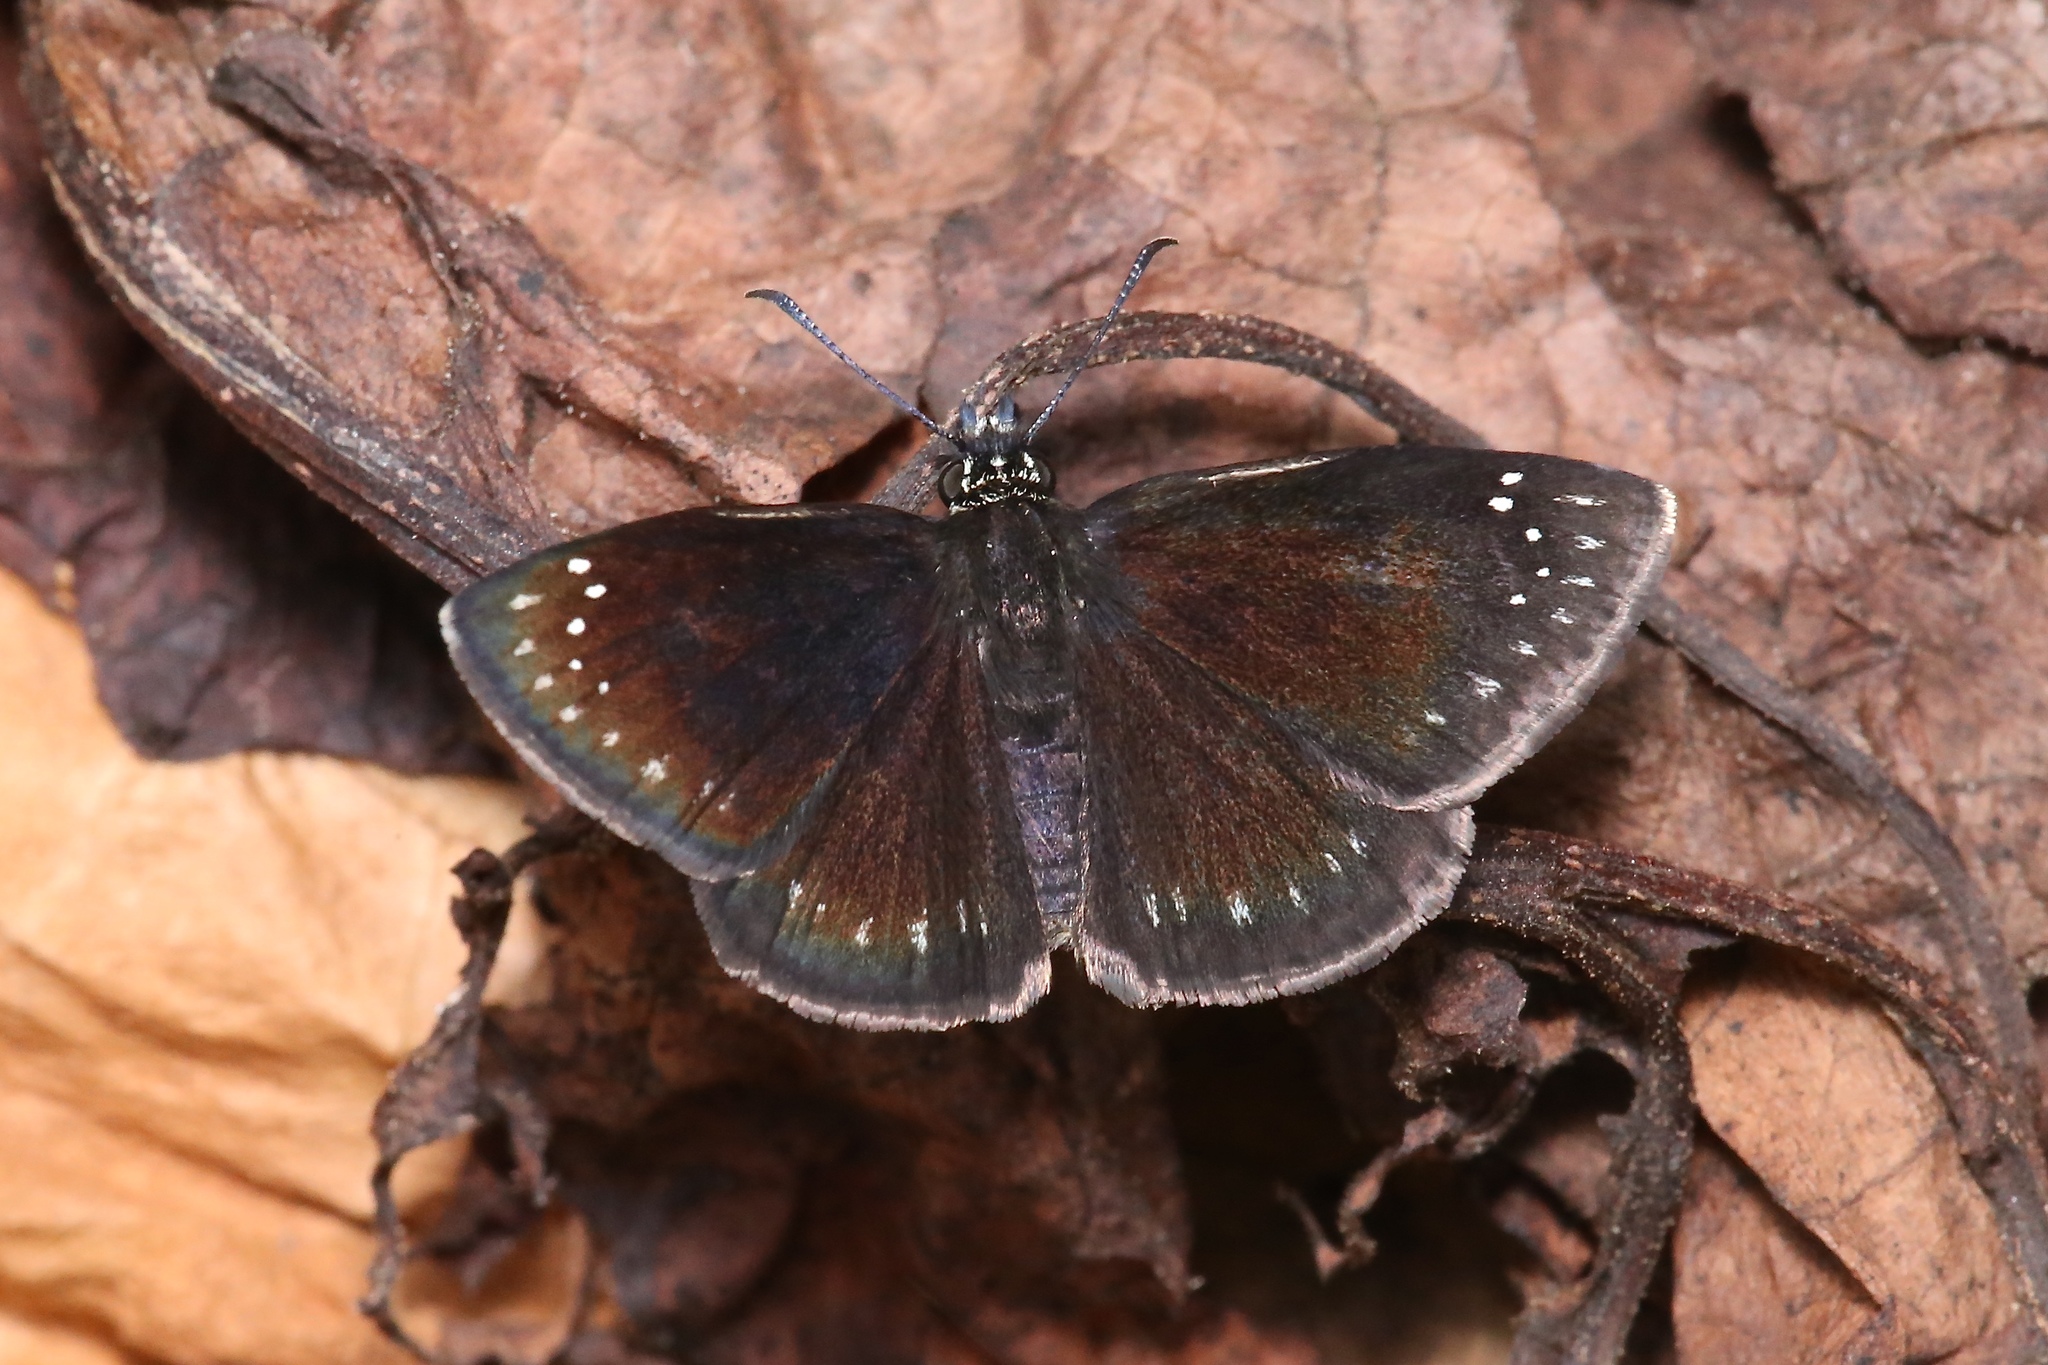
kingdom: Animalia
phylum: Arthropoda
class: Insecta
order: Lepidoptera
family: Hesperiidae
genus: Pholisora
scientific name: Pholisora catullus
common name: Common sootywing
